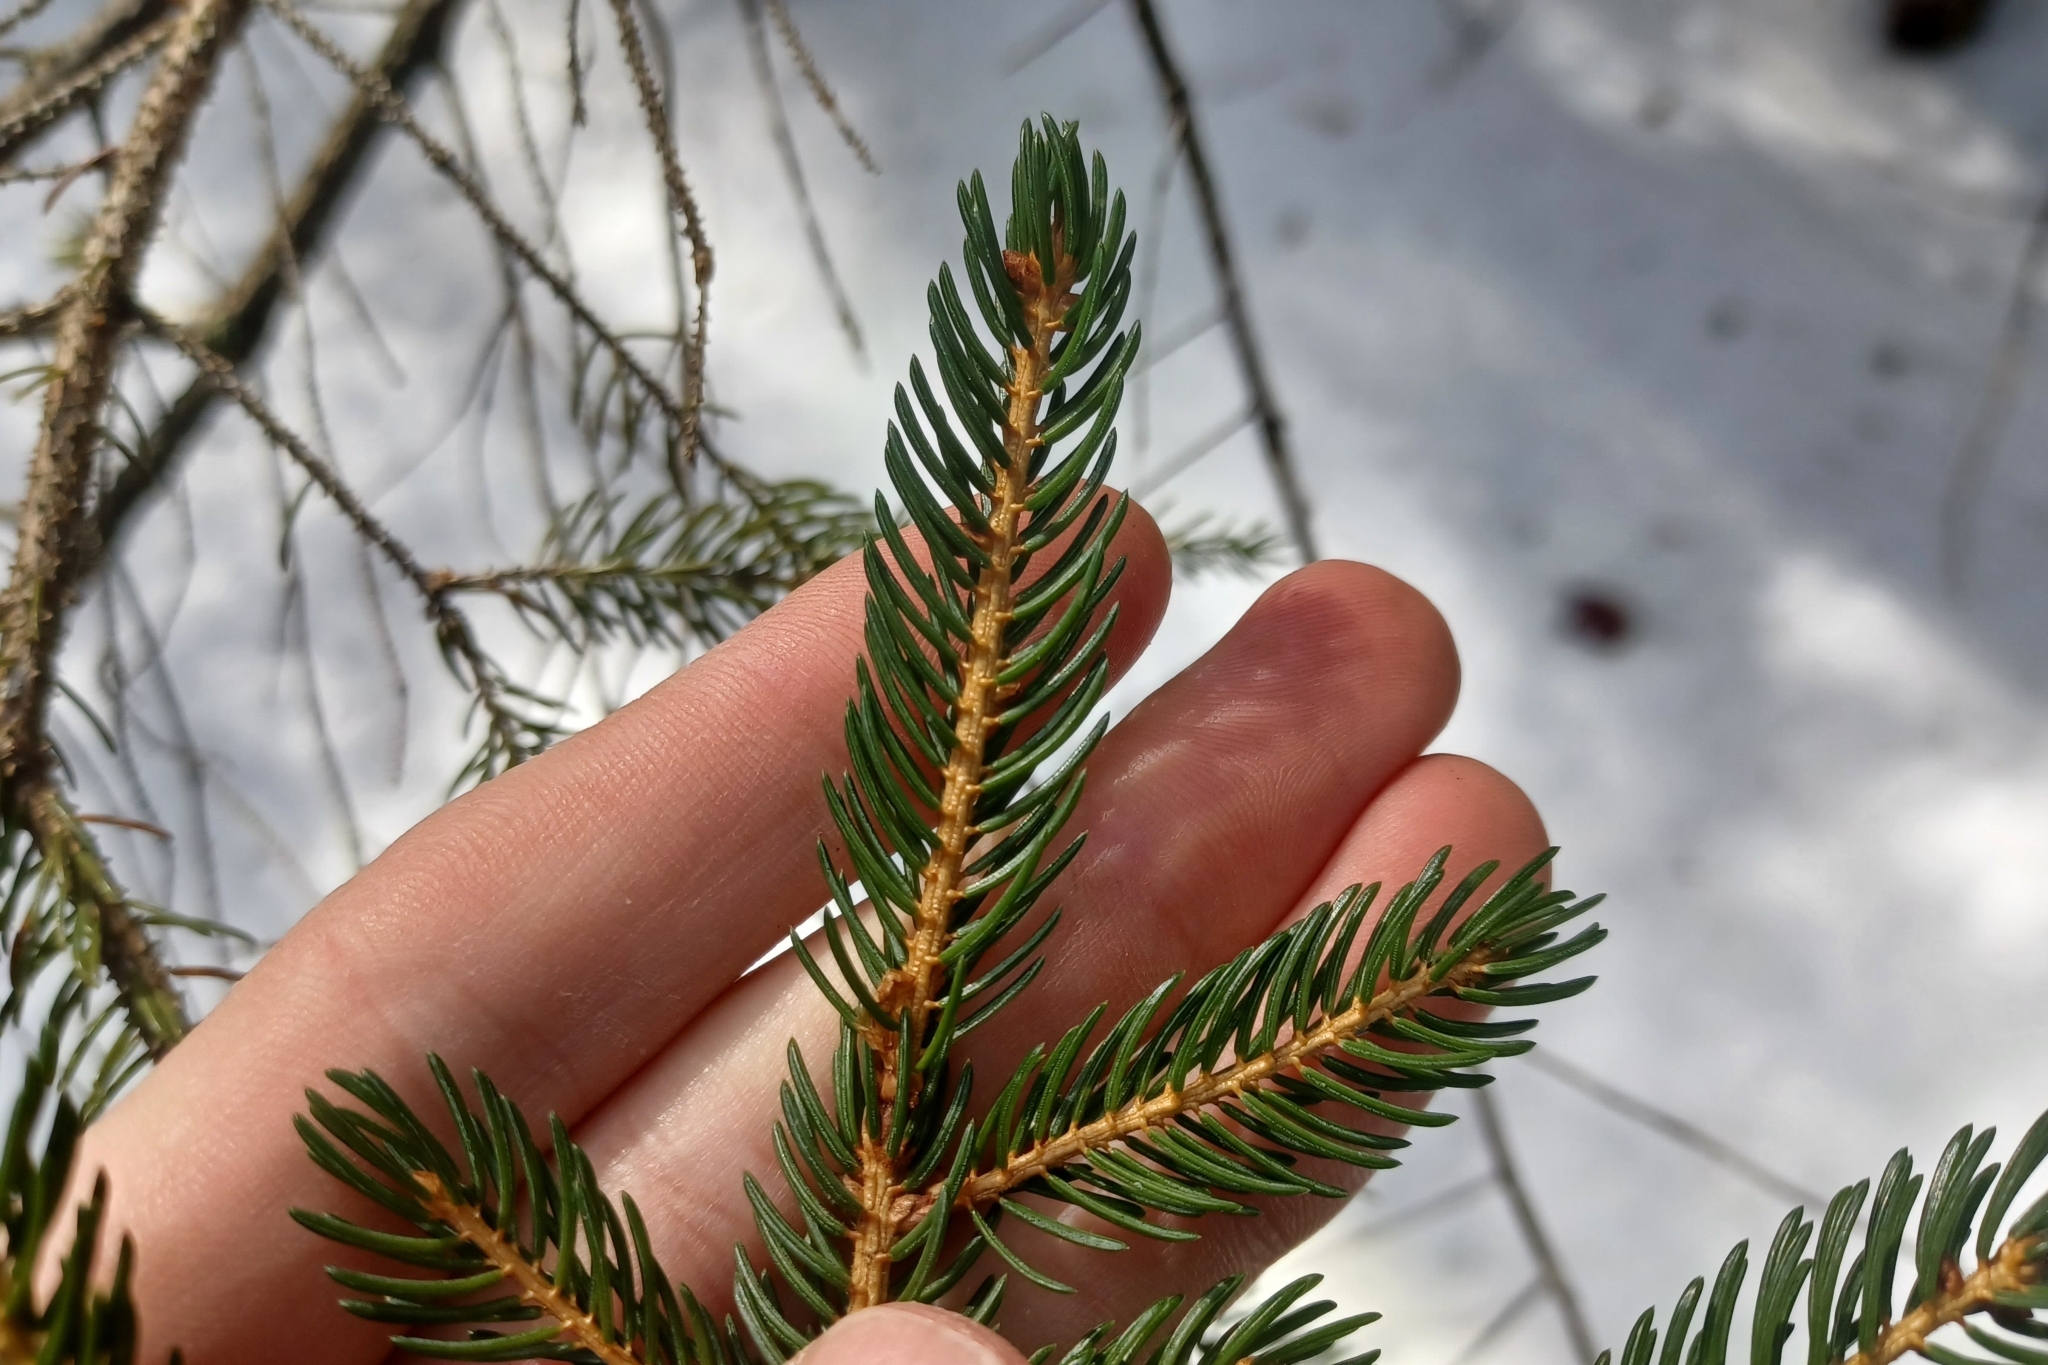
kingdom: Plantae
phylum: Tracheophyta
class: Pinopsida
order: Pinales
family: Pinaceae
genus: Picea
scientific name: Picea rubens
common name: Red spruce
